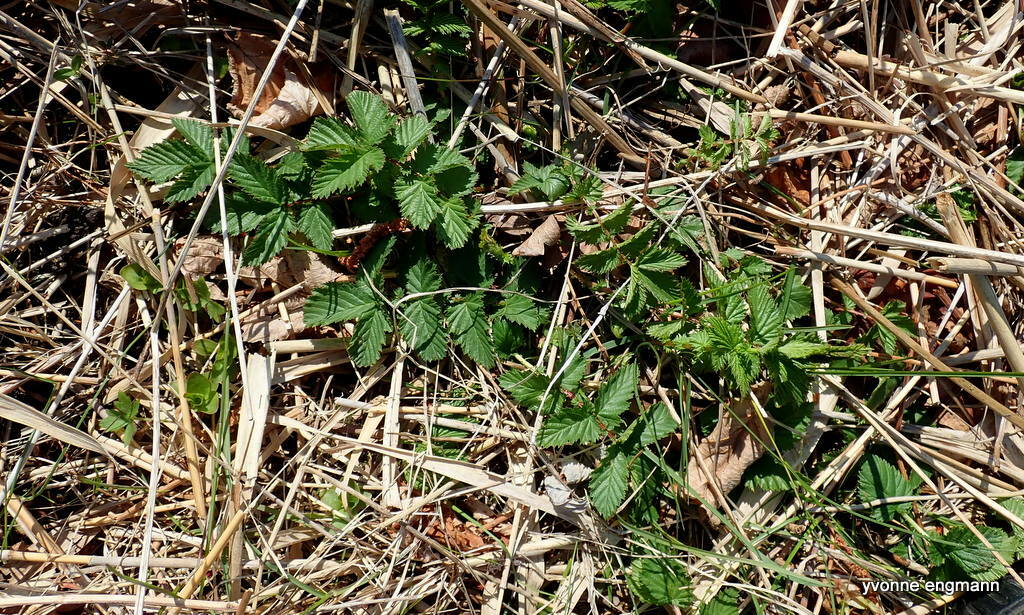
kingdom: Plantae
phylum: Tracheophyta
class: Magnoliopsida
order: Rosales
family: Rosaceae
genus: Filipendula
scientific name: Filipendula ulmaria
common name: Meadowsweet
